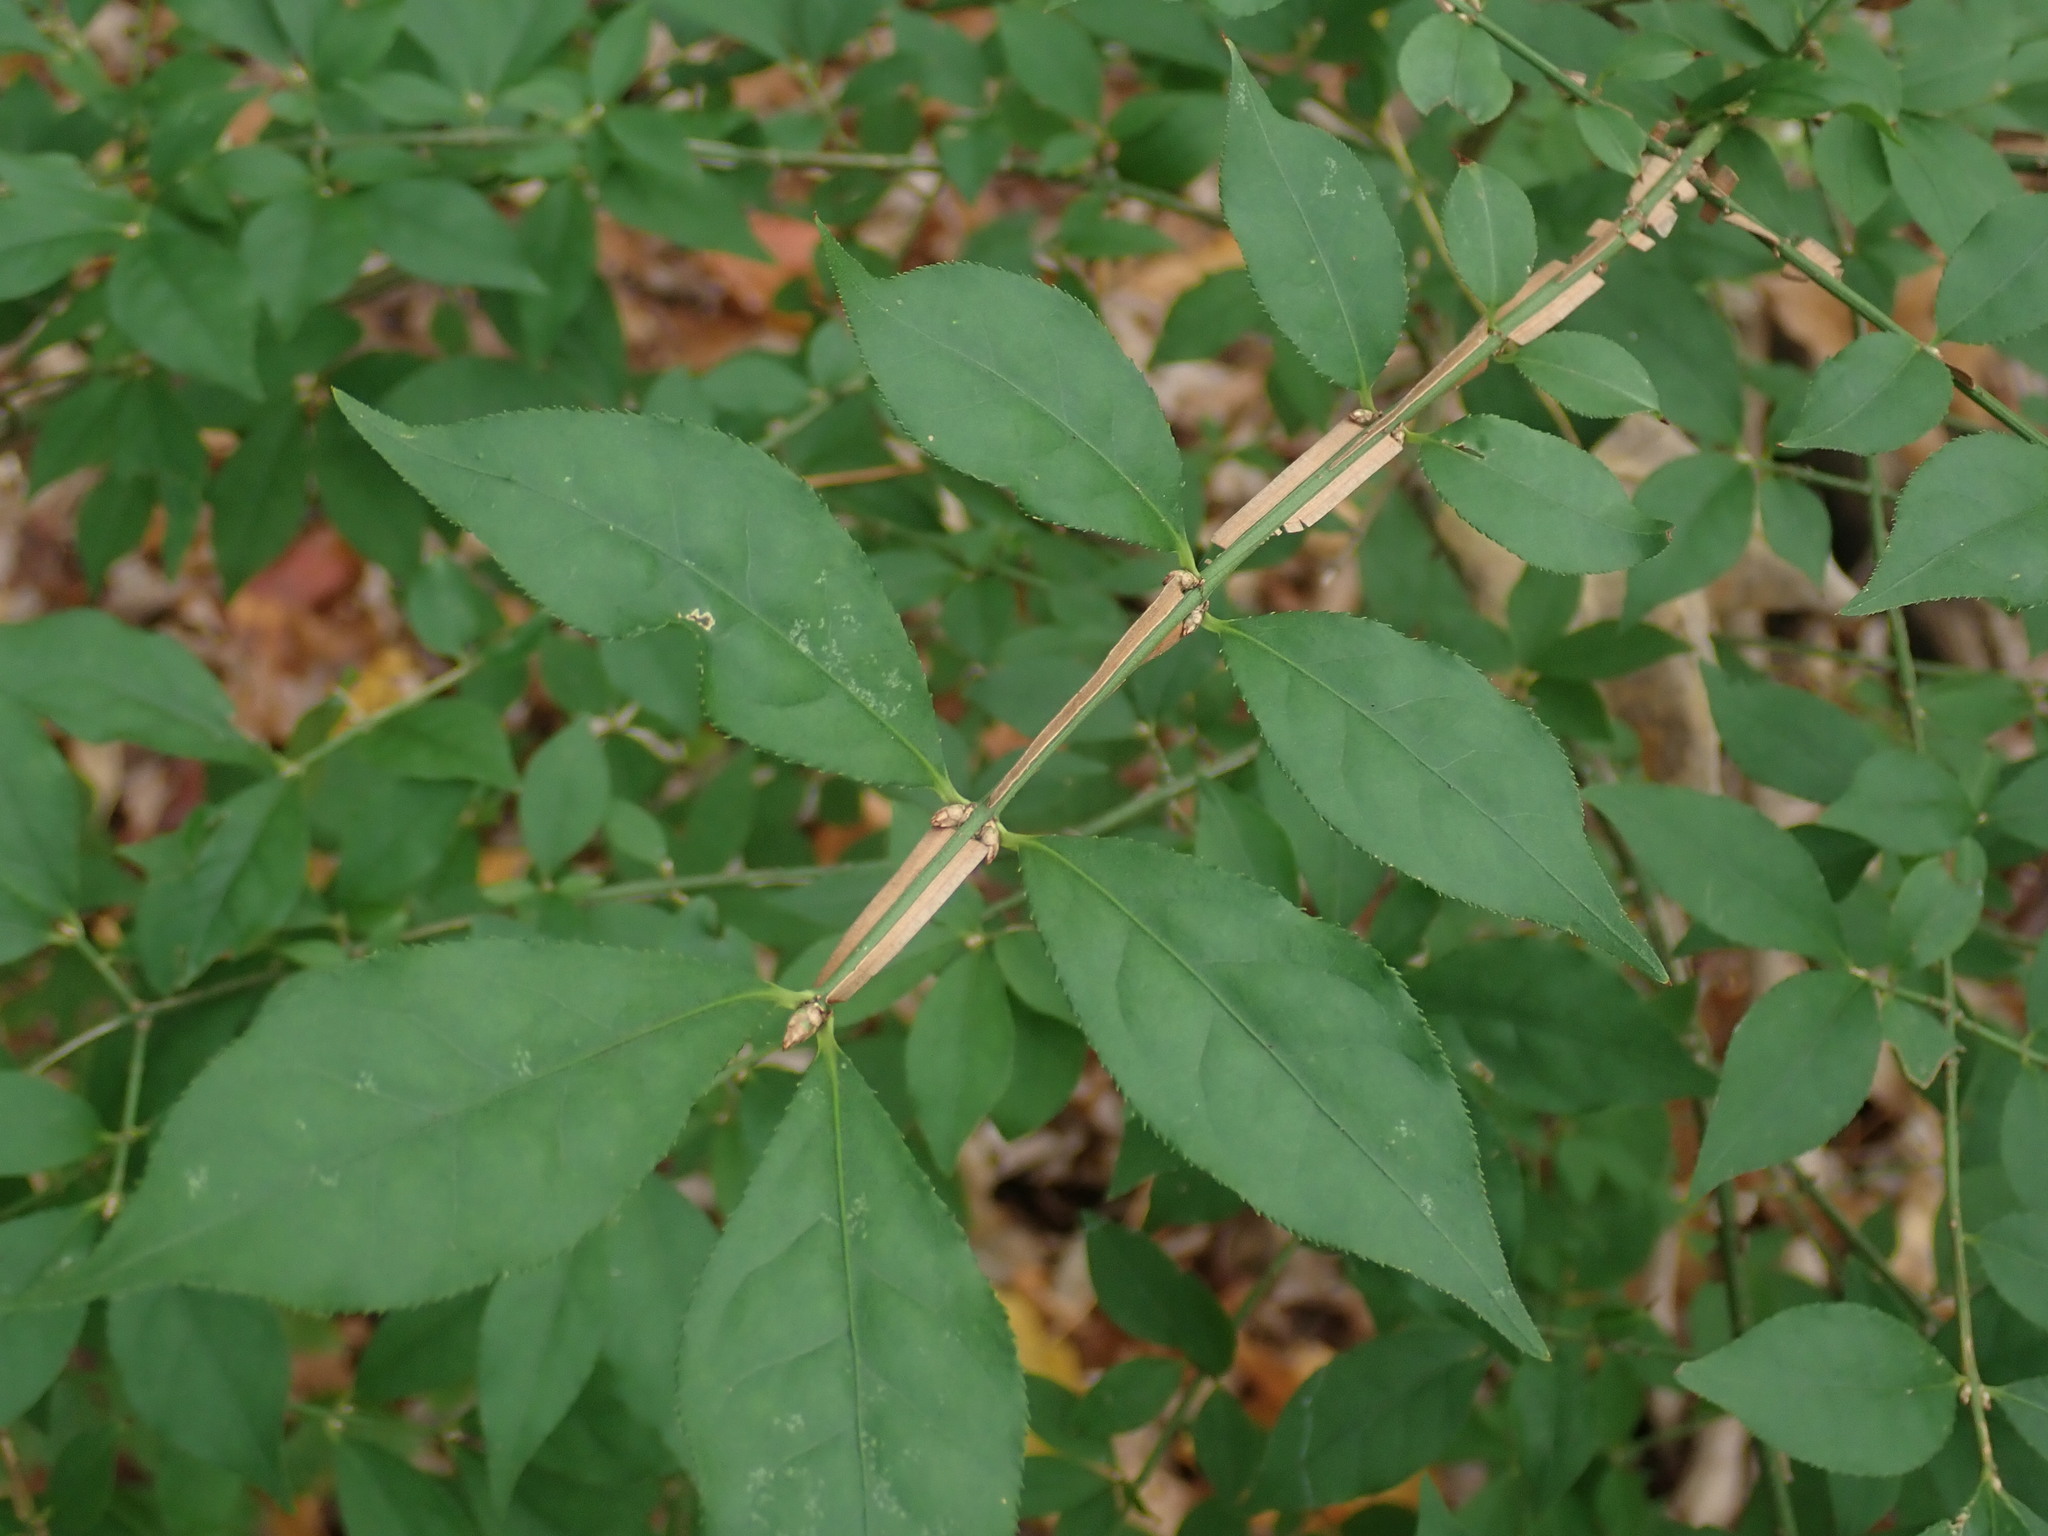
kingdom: Plantae
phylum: Tracheophyta
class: Magnoliopsida
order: Celastrales
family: Celastraceae
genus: Euonymus
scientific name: Euonymus alatus
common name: Winged euonymus
